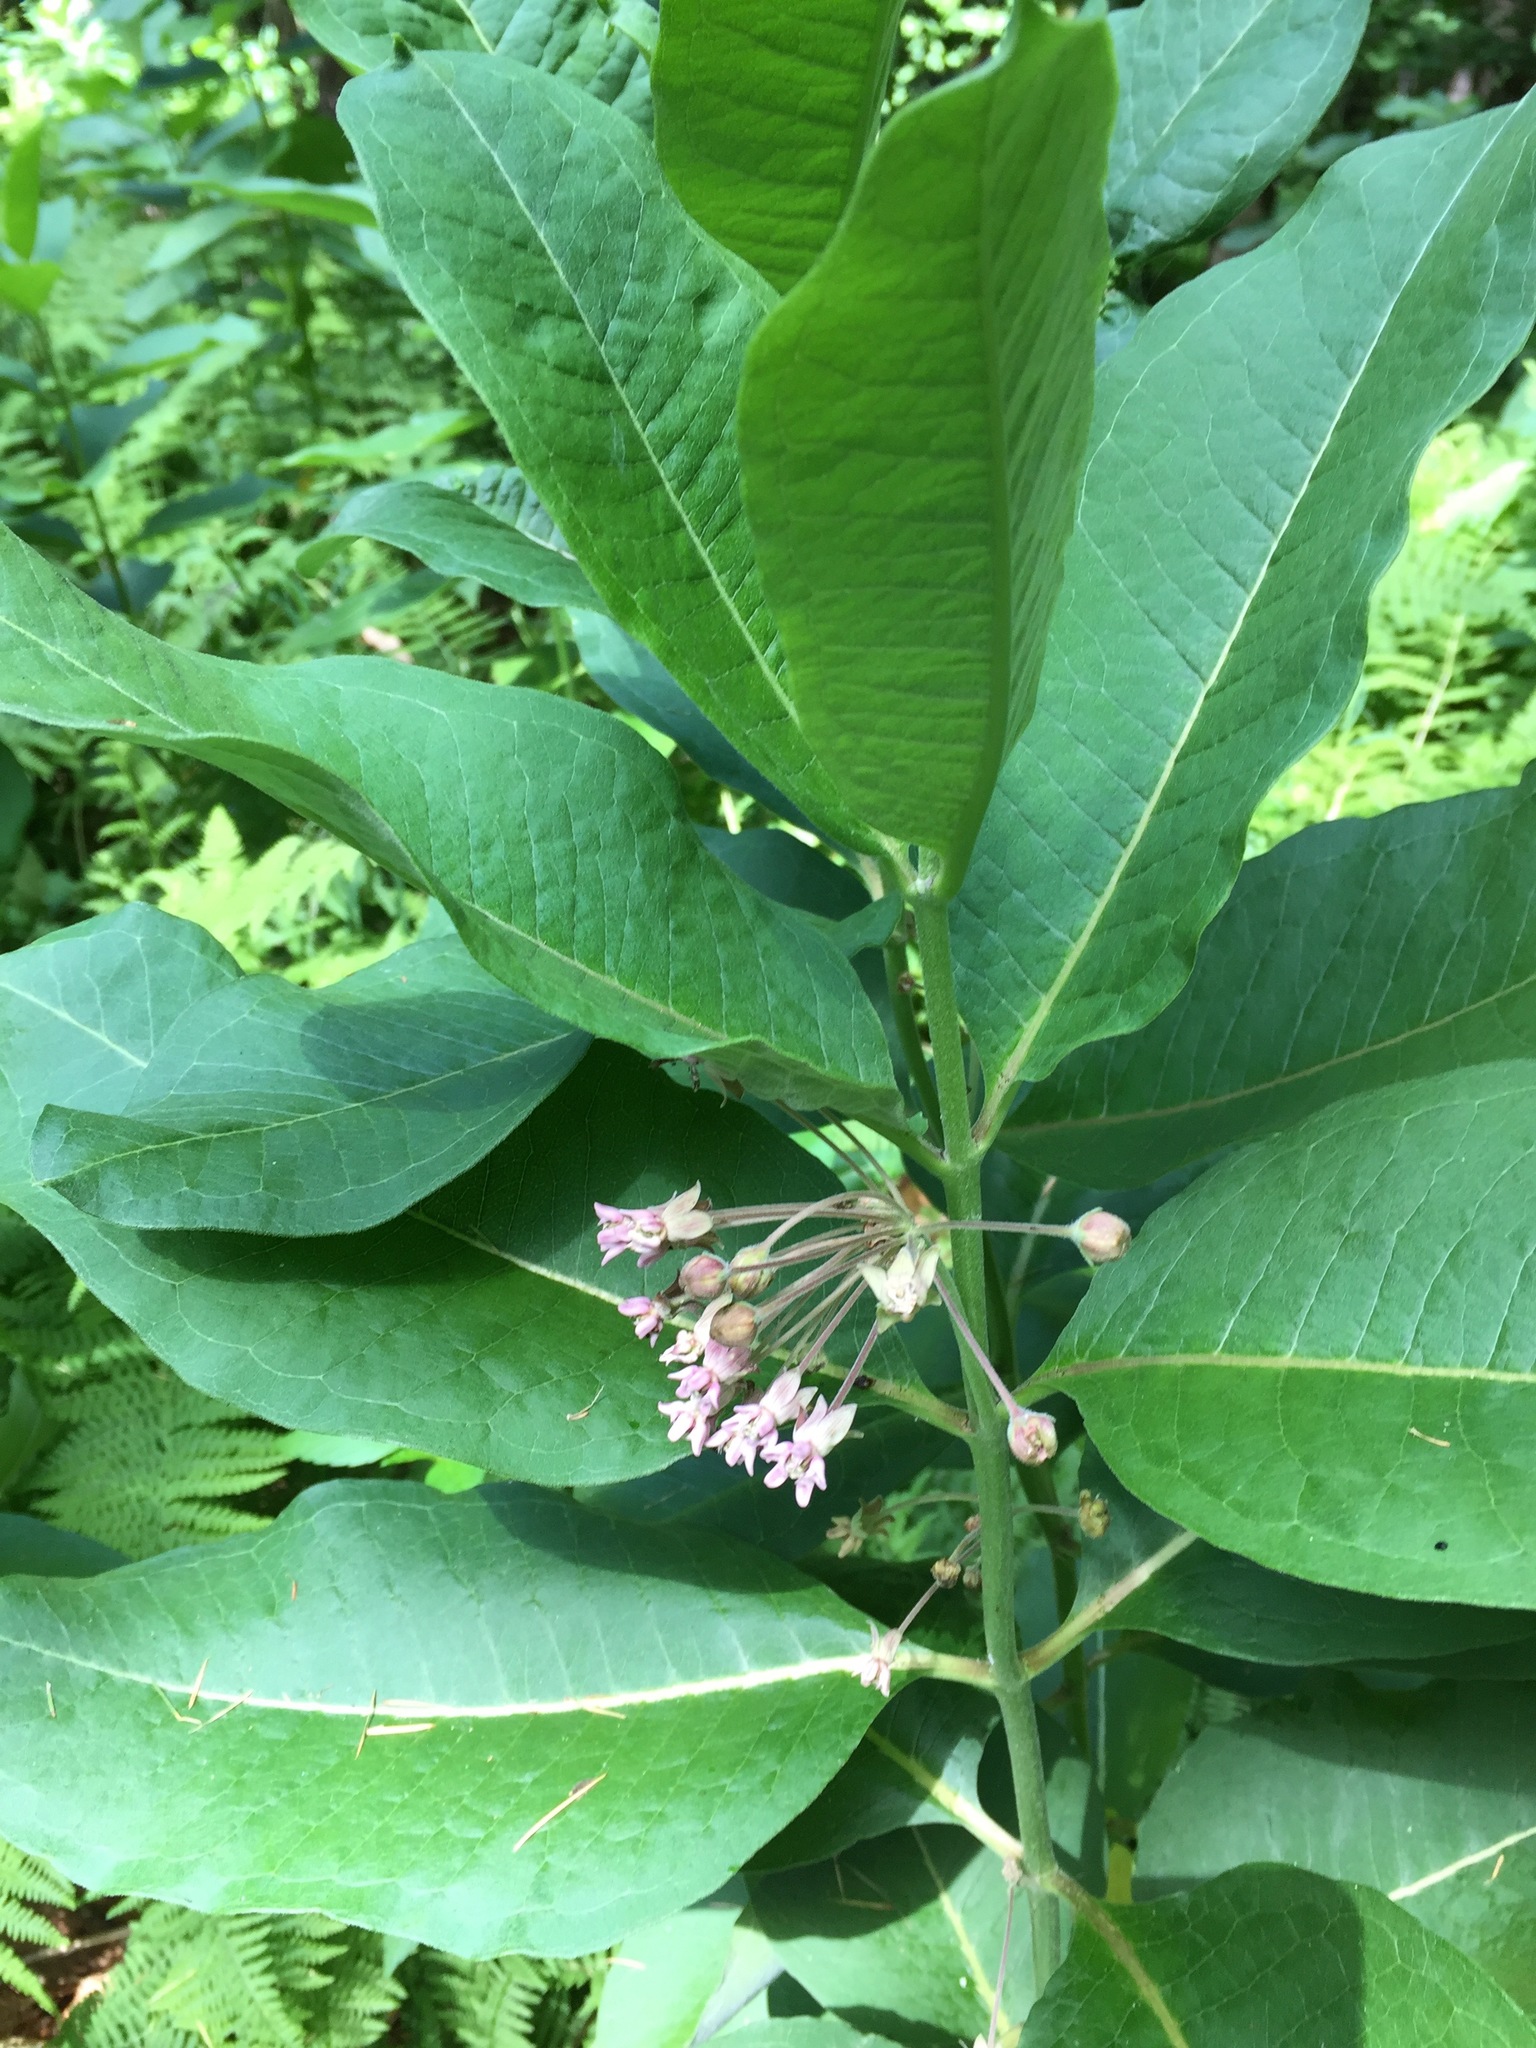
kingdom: Plantae
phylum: Tracheophyta
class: Magnoliopsida
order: Gentianales
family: Apocynaceae
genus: Asclepias
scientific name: Asclepias syriaca
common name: Common milkweed
